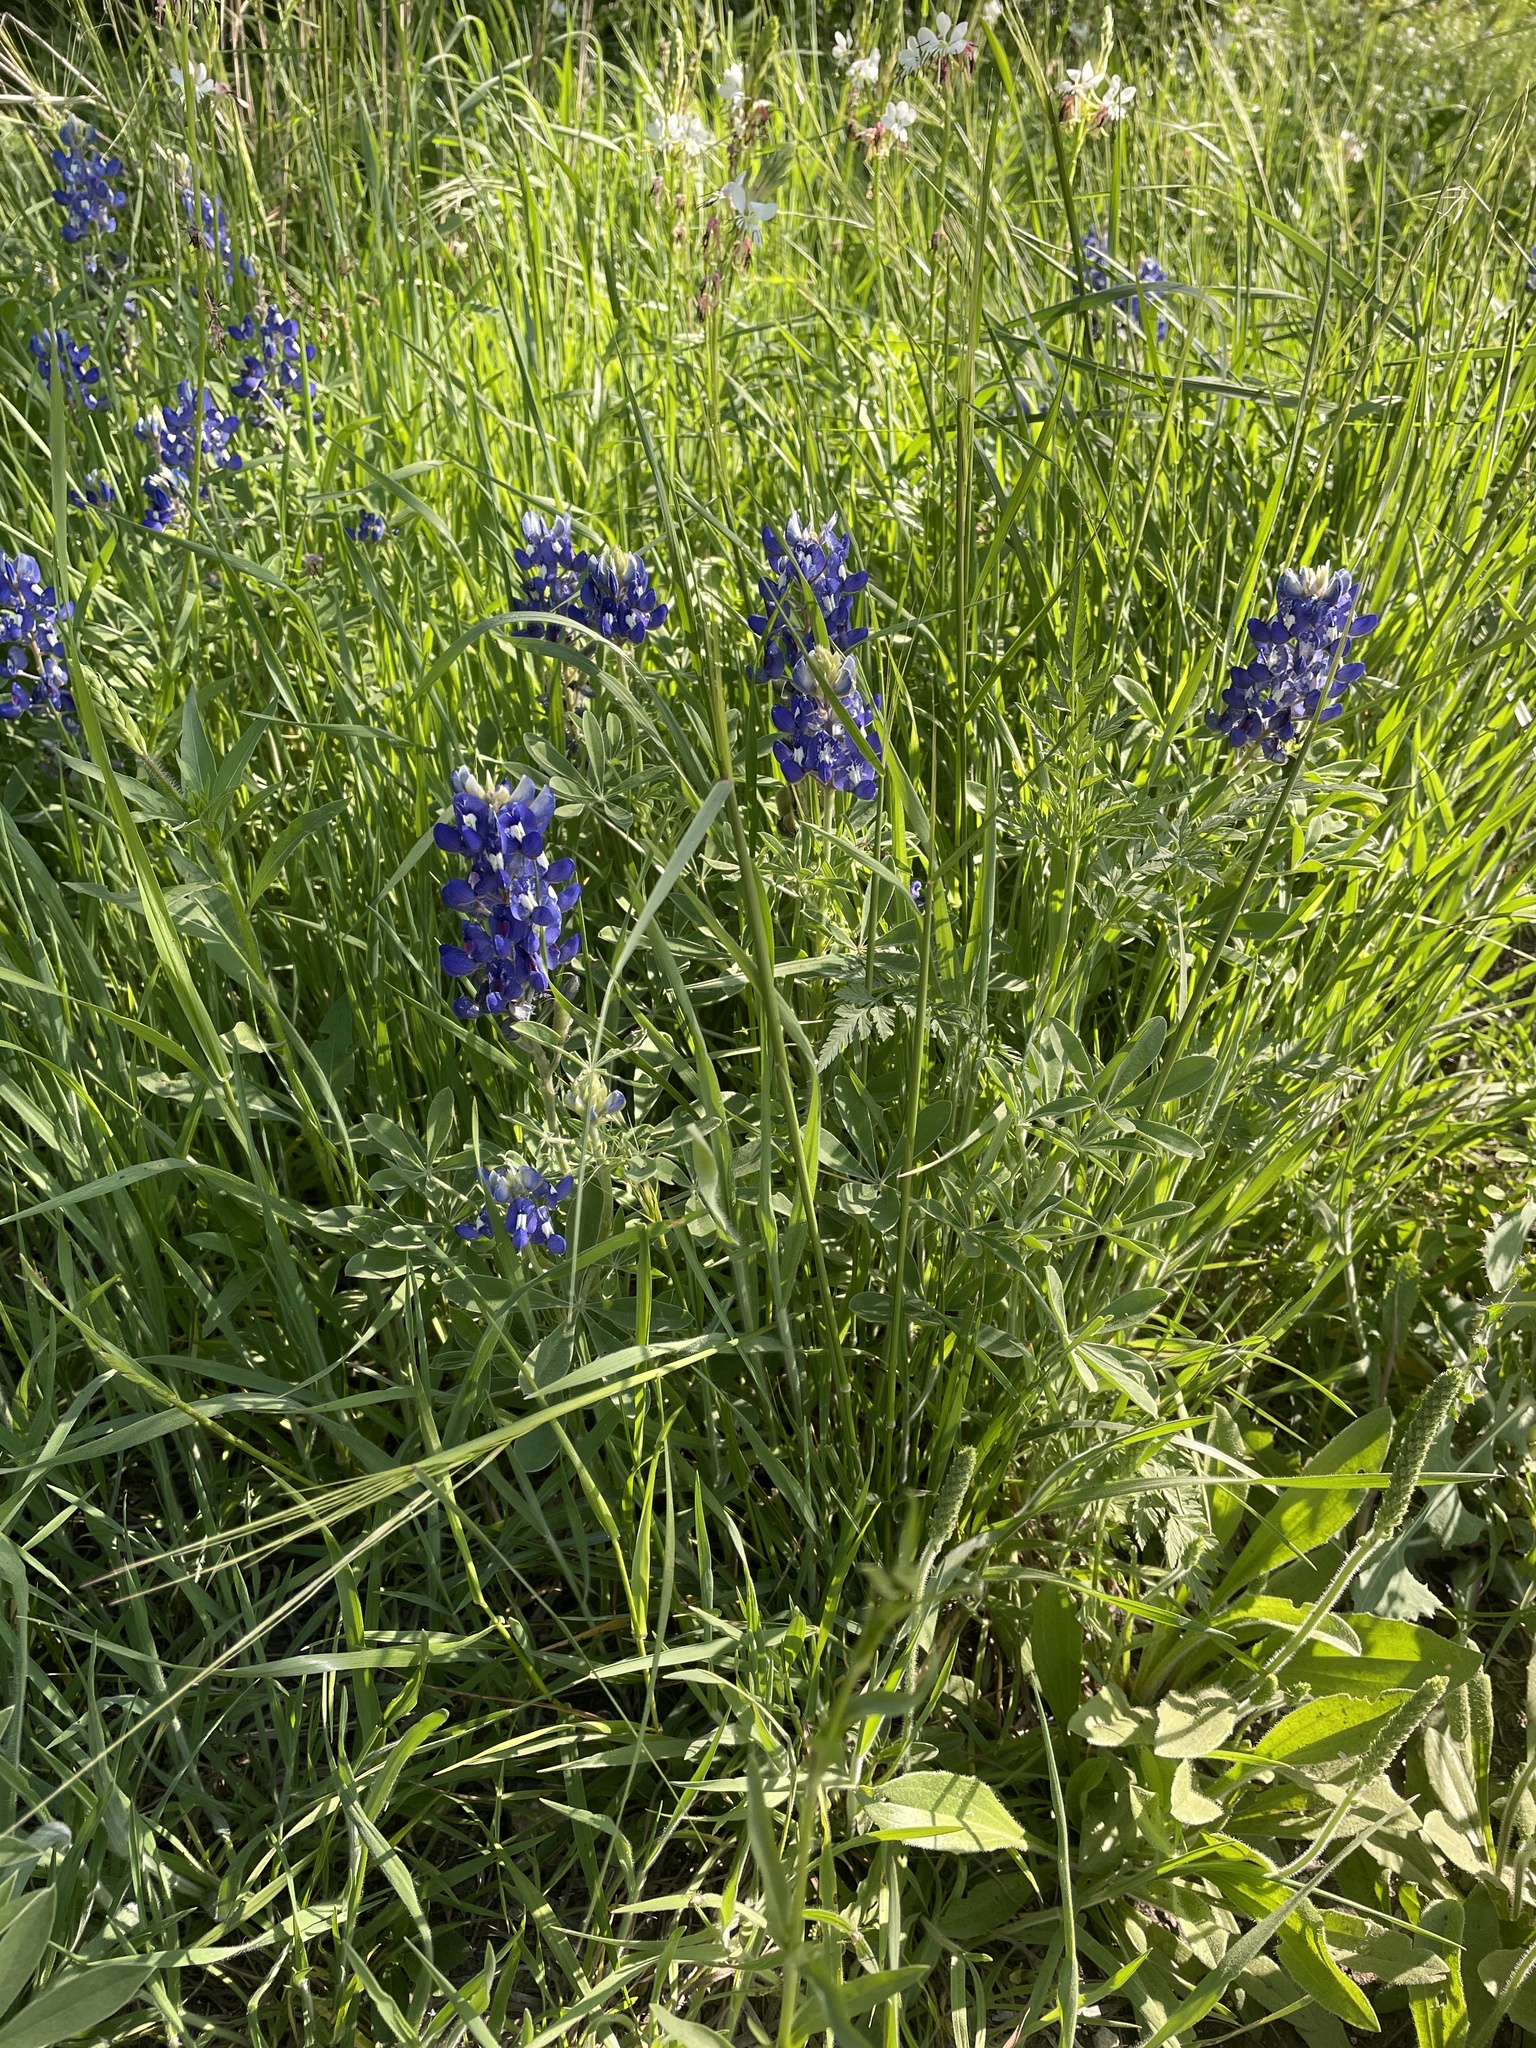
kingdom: Plantae
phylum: Tracheophyta
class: Magnoliopsida
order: Fabales
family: Fabaceae
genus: Lupinus
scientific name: Lupinus texensis
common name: Texas bluebonnet
